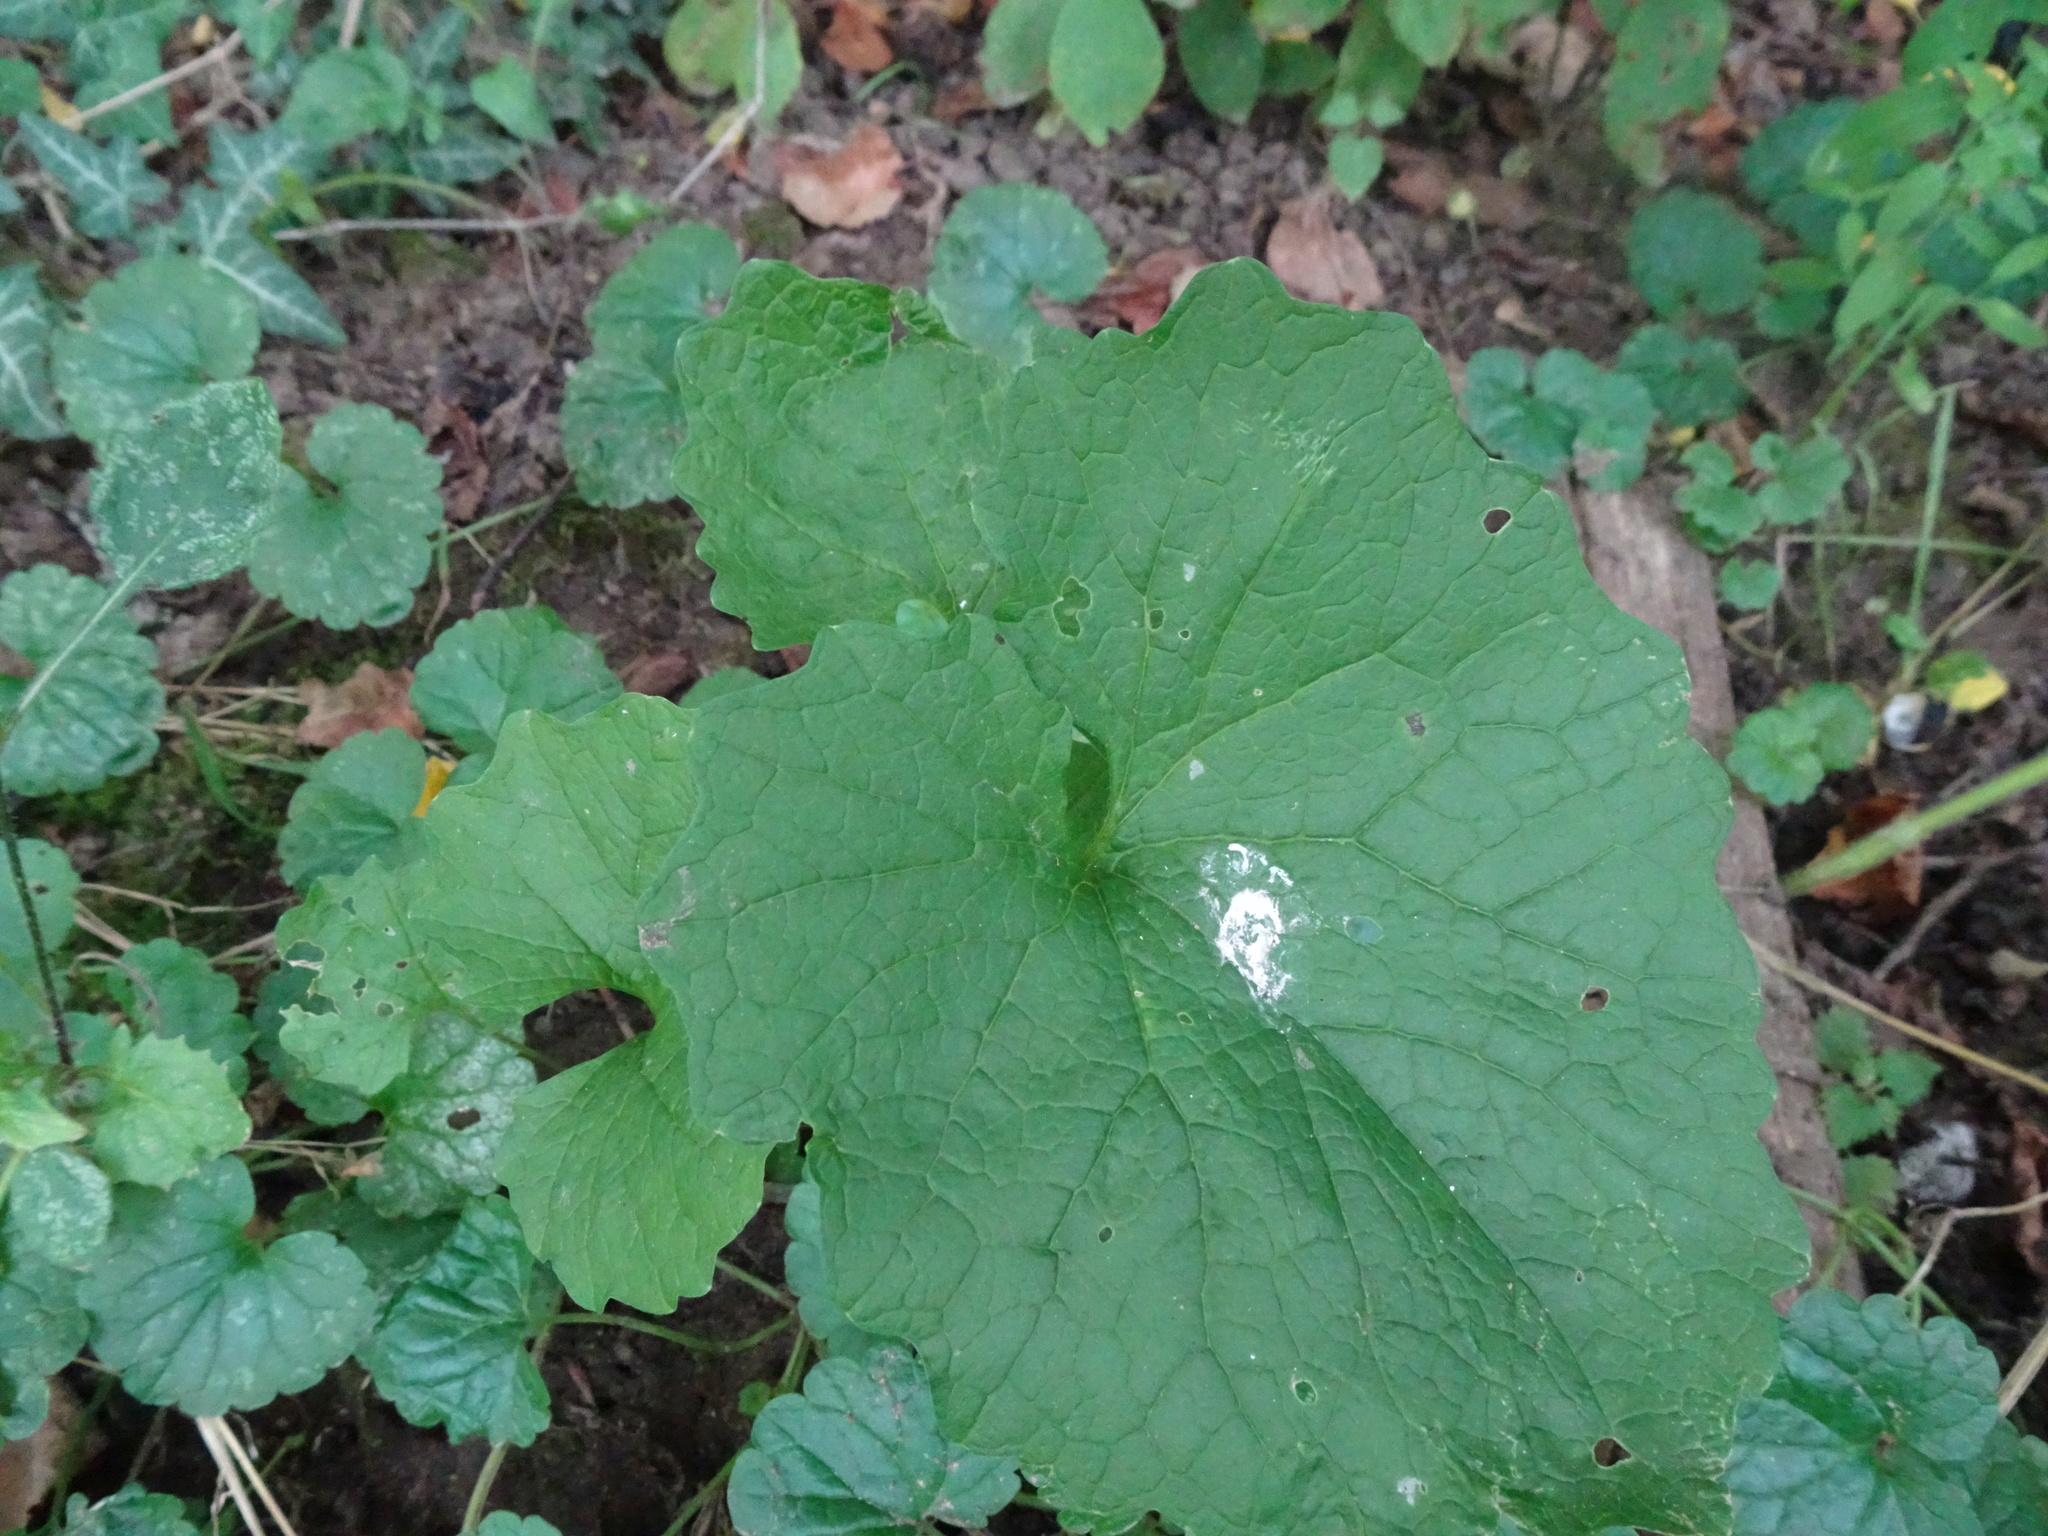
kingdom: Plantae
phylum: Tracheophyta
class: Magnoliopsida
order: Brassicales
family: Brassicaceae
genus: Alliaria
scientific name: Alliaria petiolata
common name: Garlic mustard
